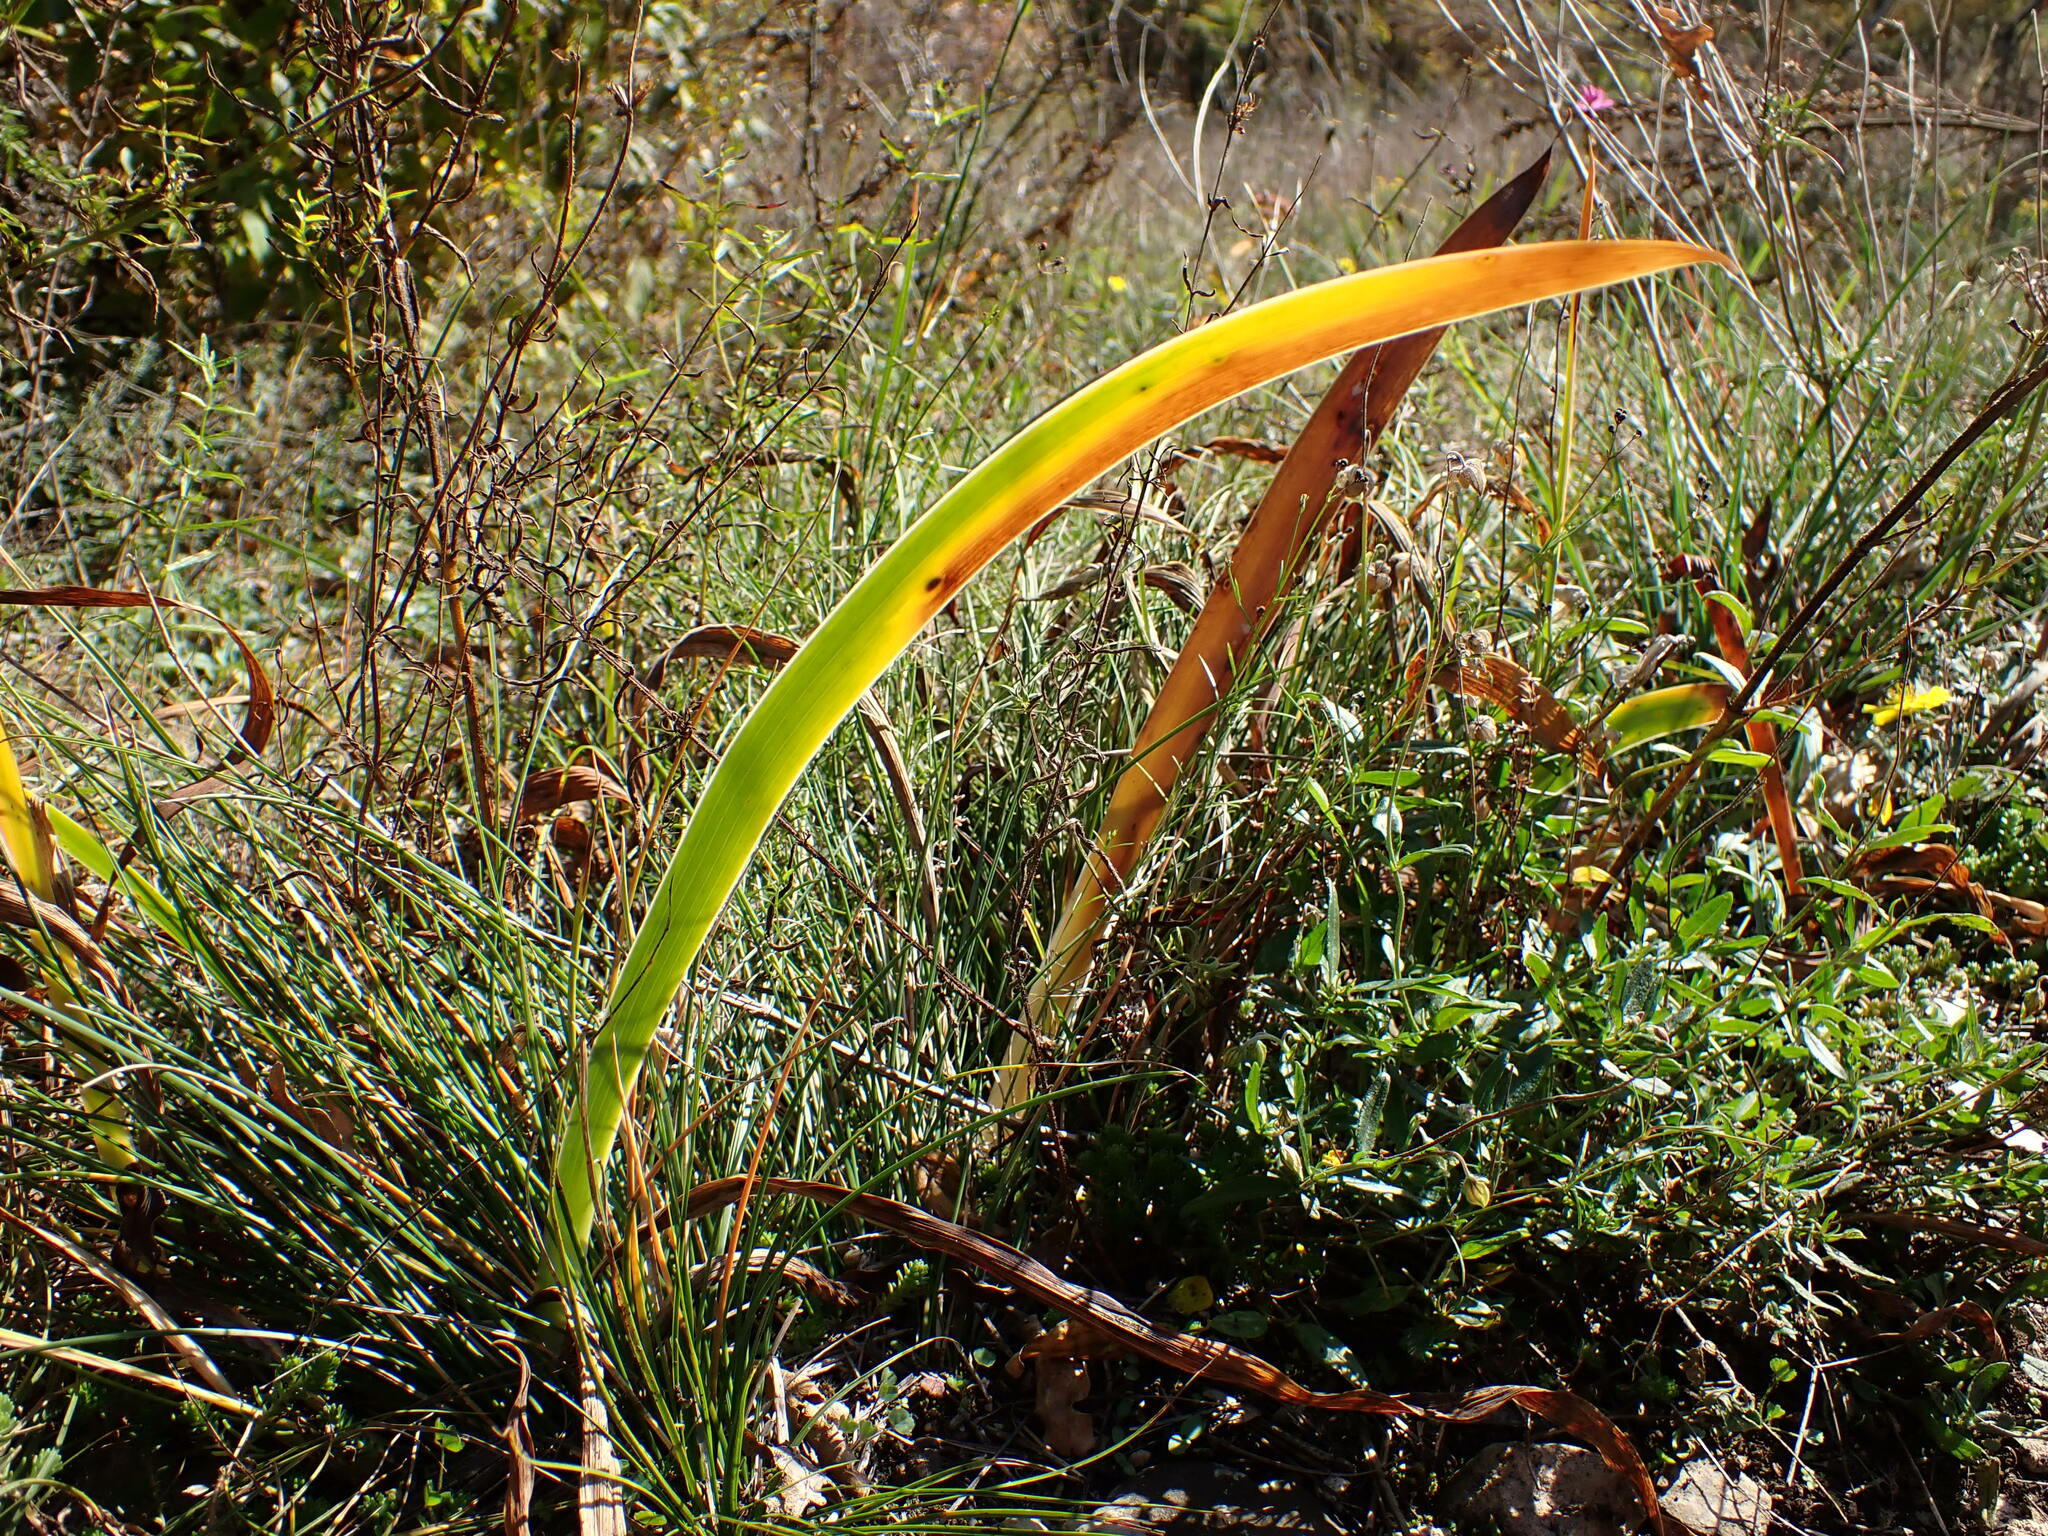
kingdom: Plantae
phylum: Tracheophyta
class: Liliopsida
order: Asparagales
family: Iridaceae
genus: Iris
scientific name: Iris aphylla
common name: Stool iris
